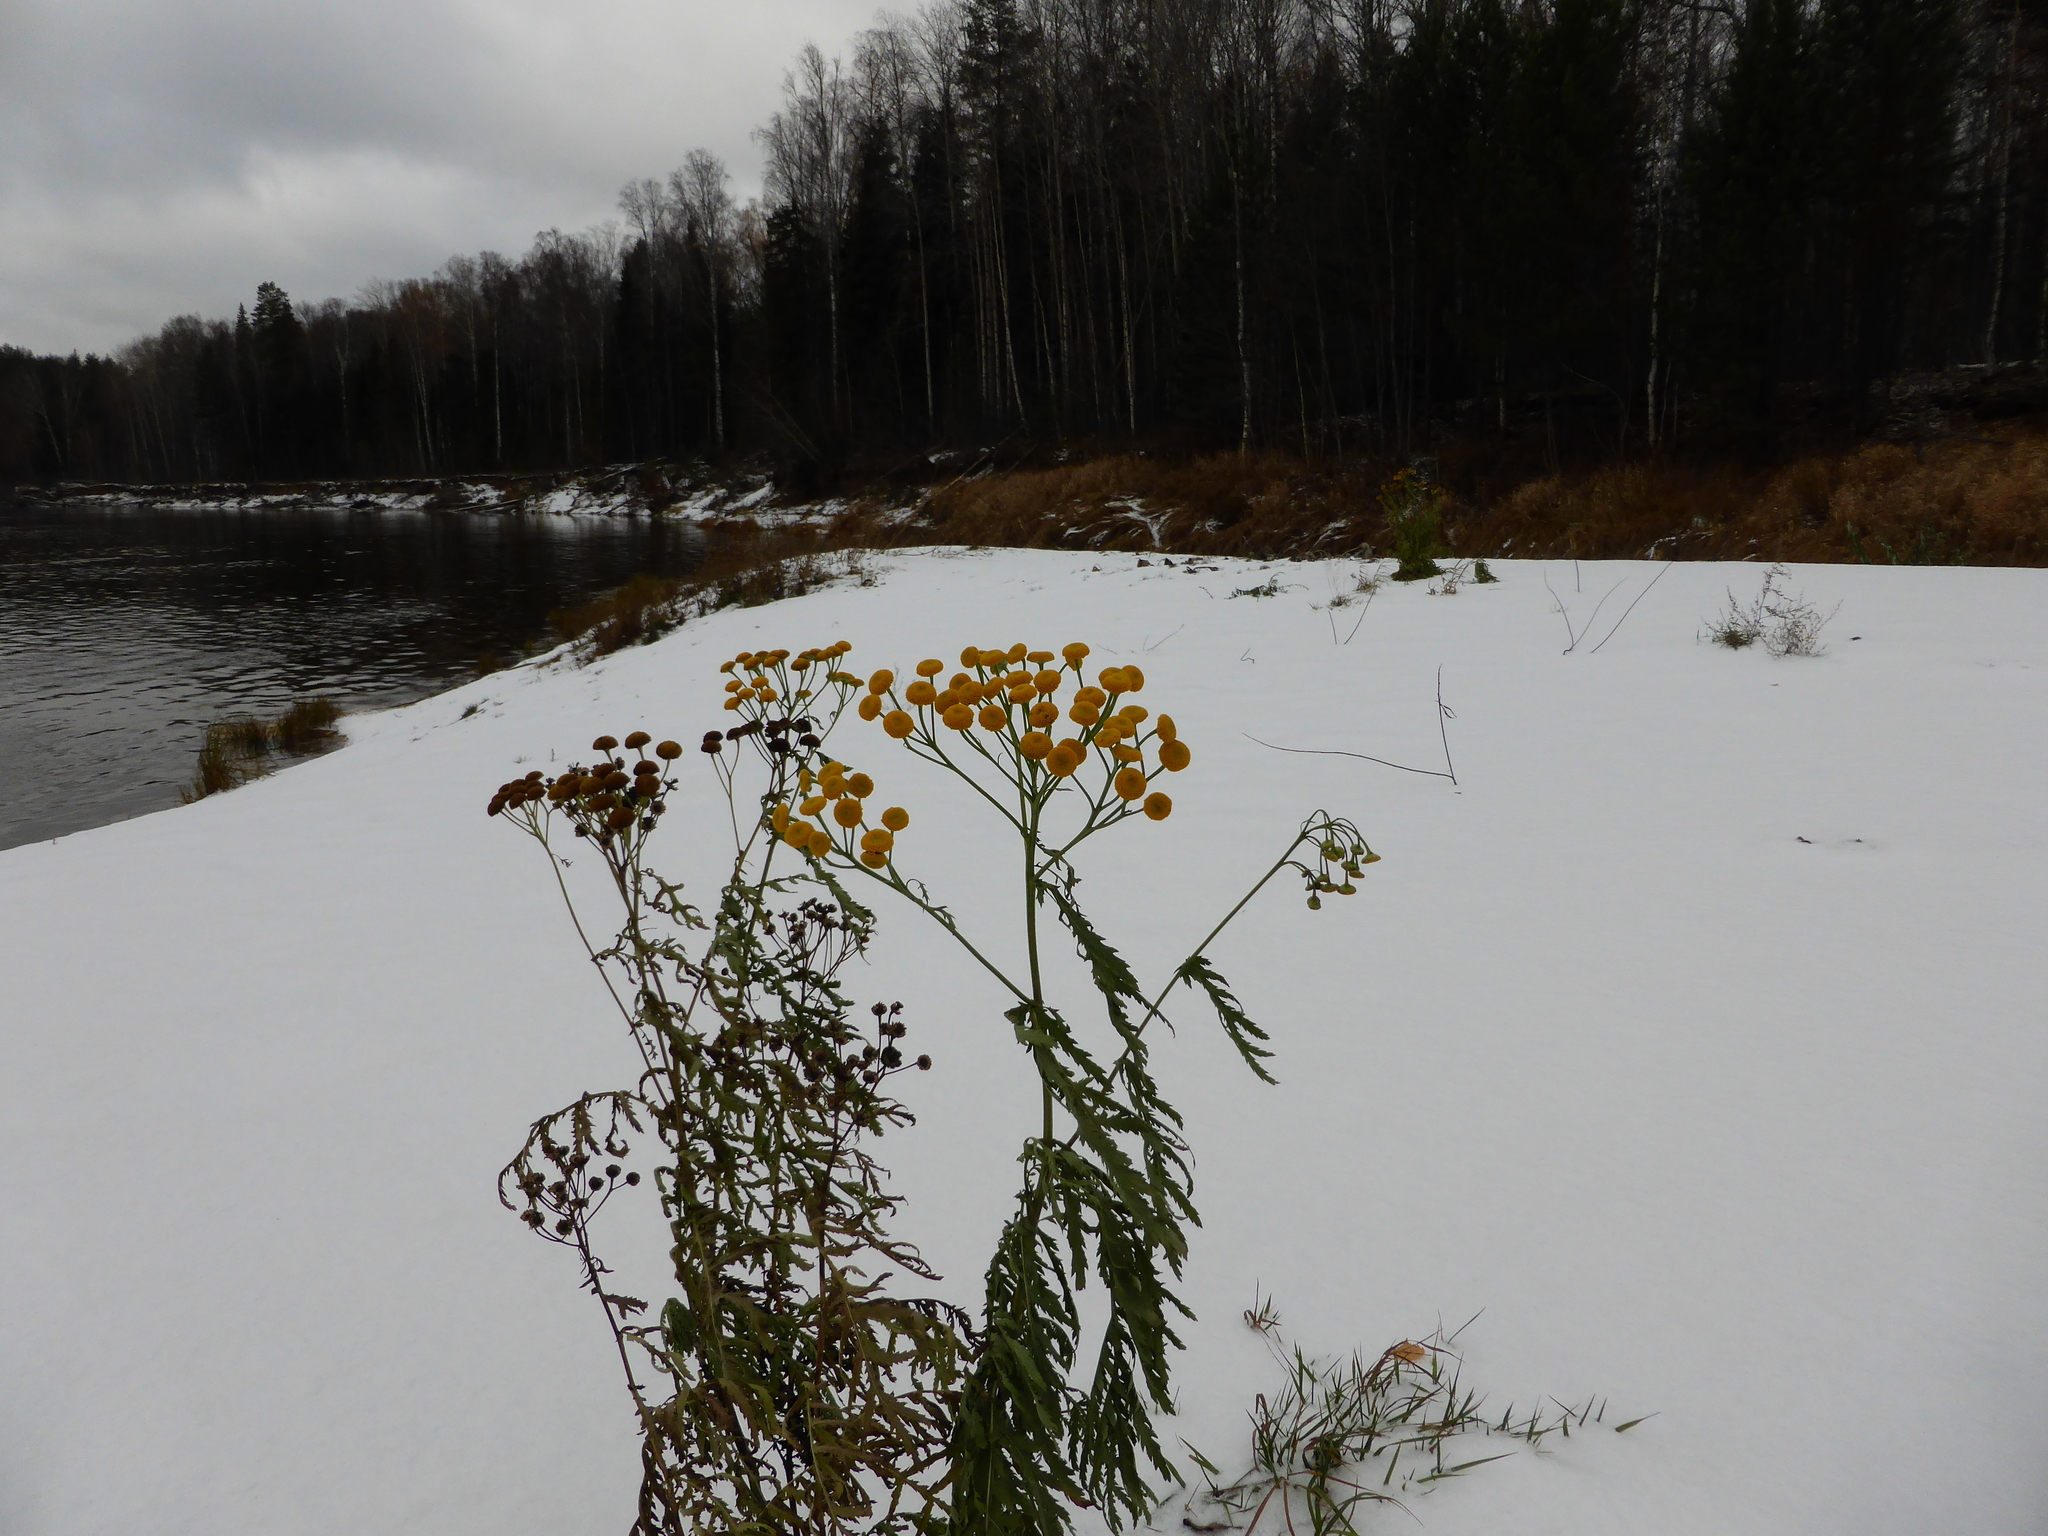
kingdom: Plantae
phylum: Tracheophyta
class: Magnoliopsida
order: Asterales
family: Asteraceae
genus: Tanacetum
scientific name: Tanacetum vulgare
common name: Common tansy
